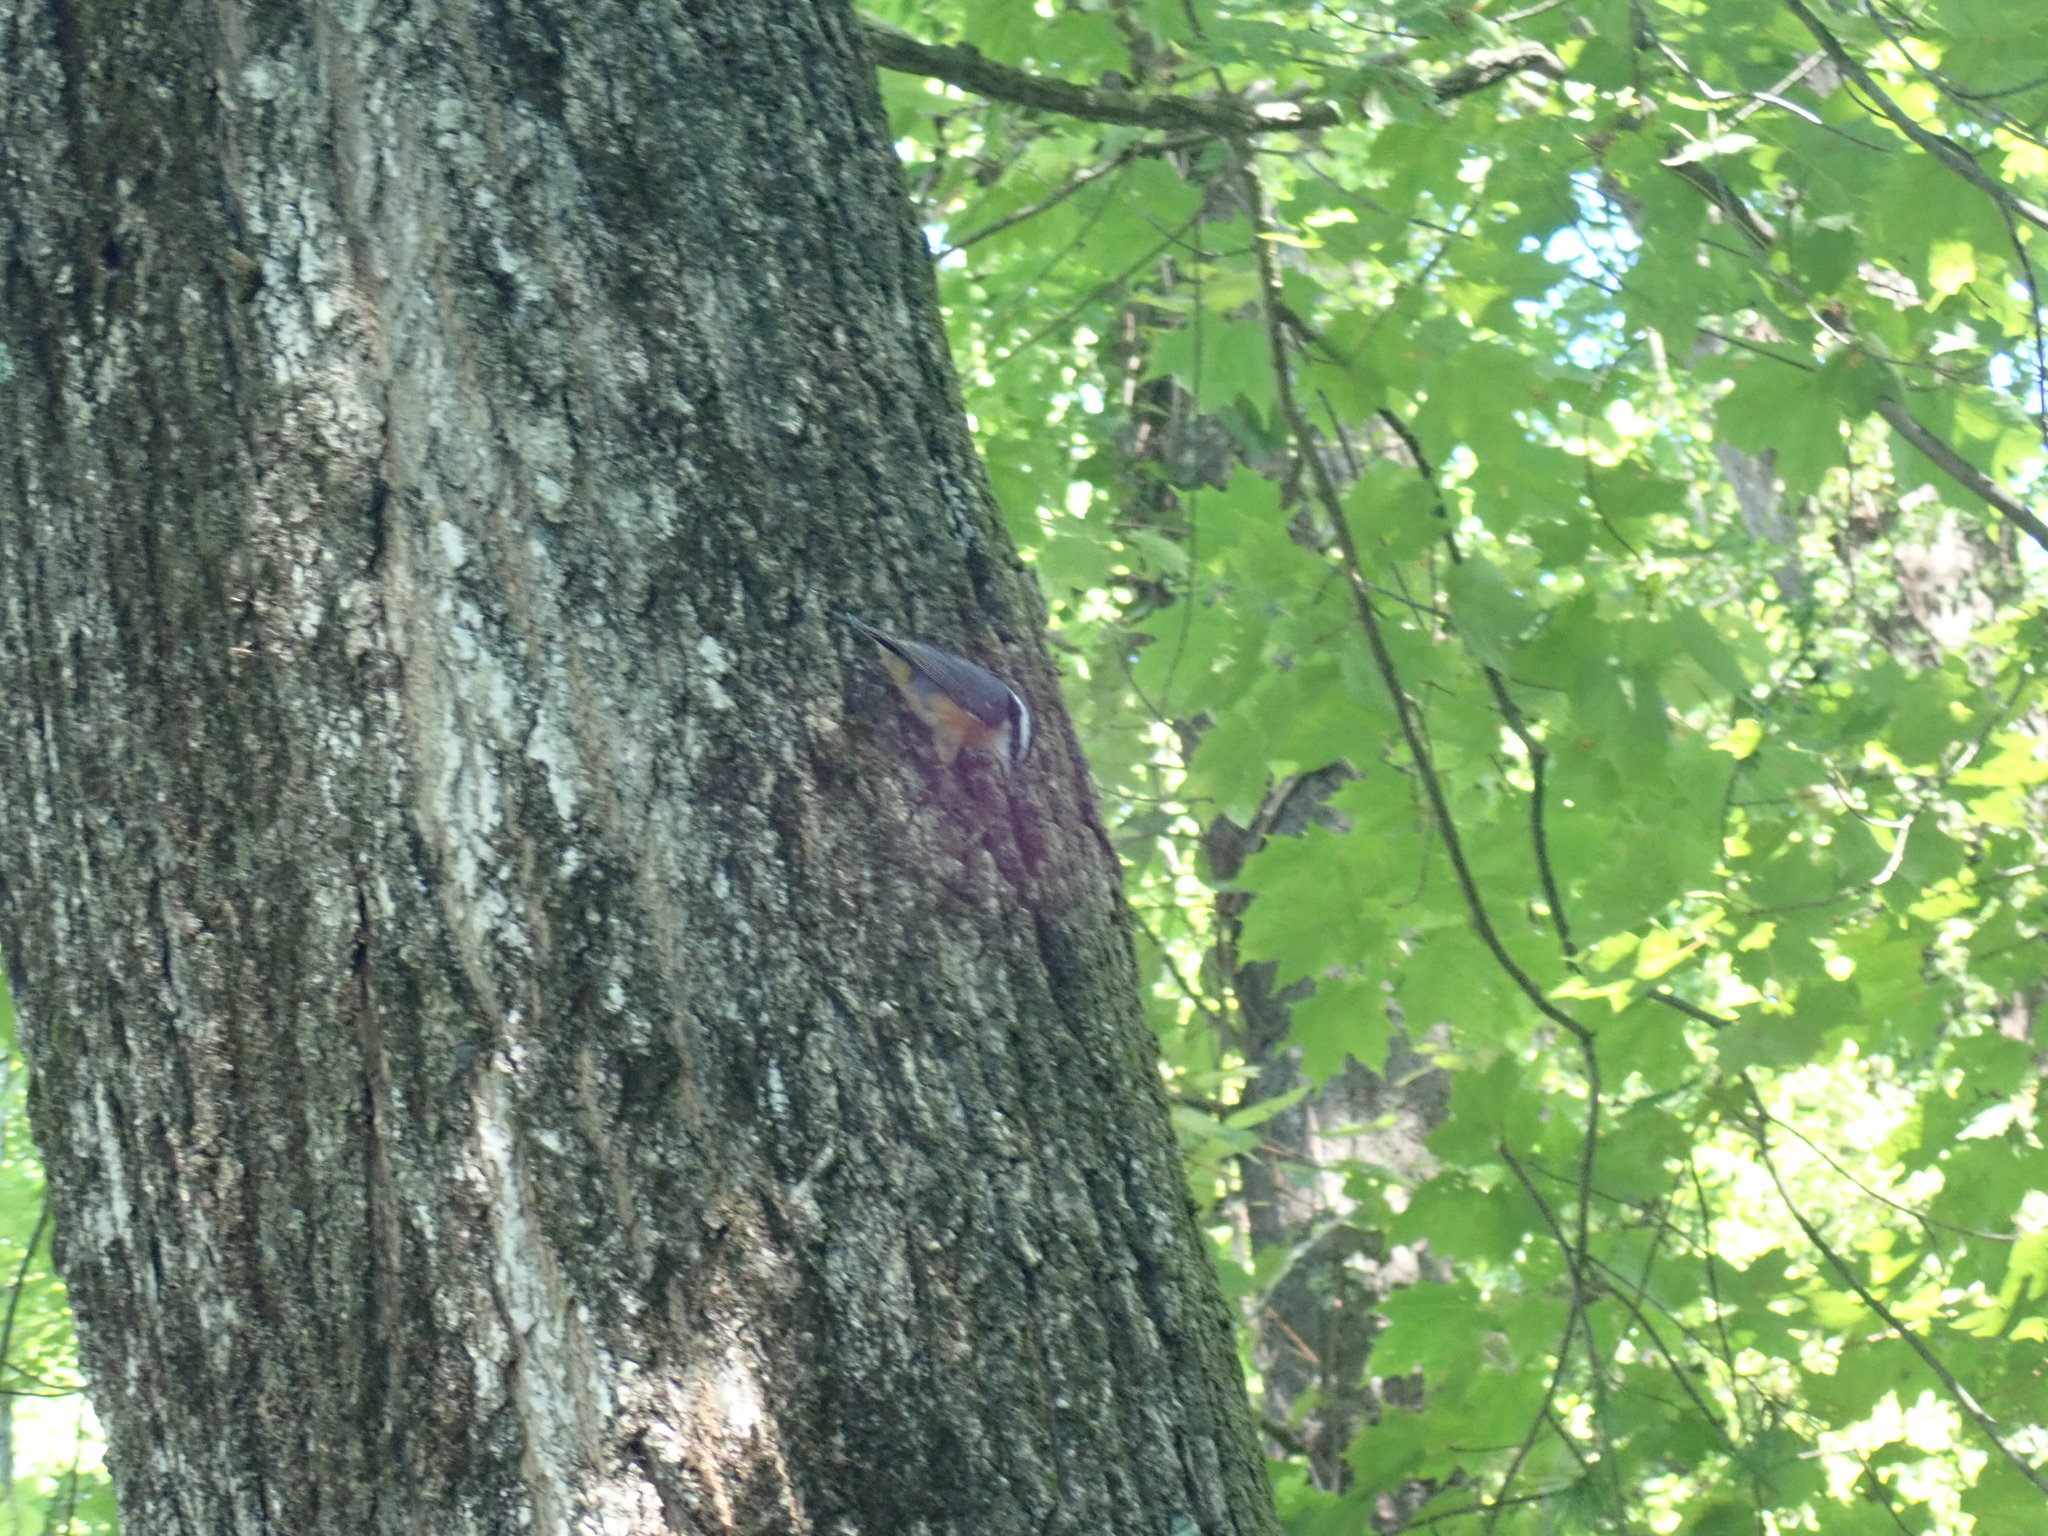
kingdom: Animalia
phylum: Chordata
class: Aves
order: Passeriformes
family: Sittidae
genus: Sitta
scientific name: Sitta canadensis
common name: Red-breasted nuthatch
